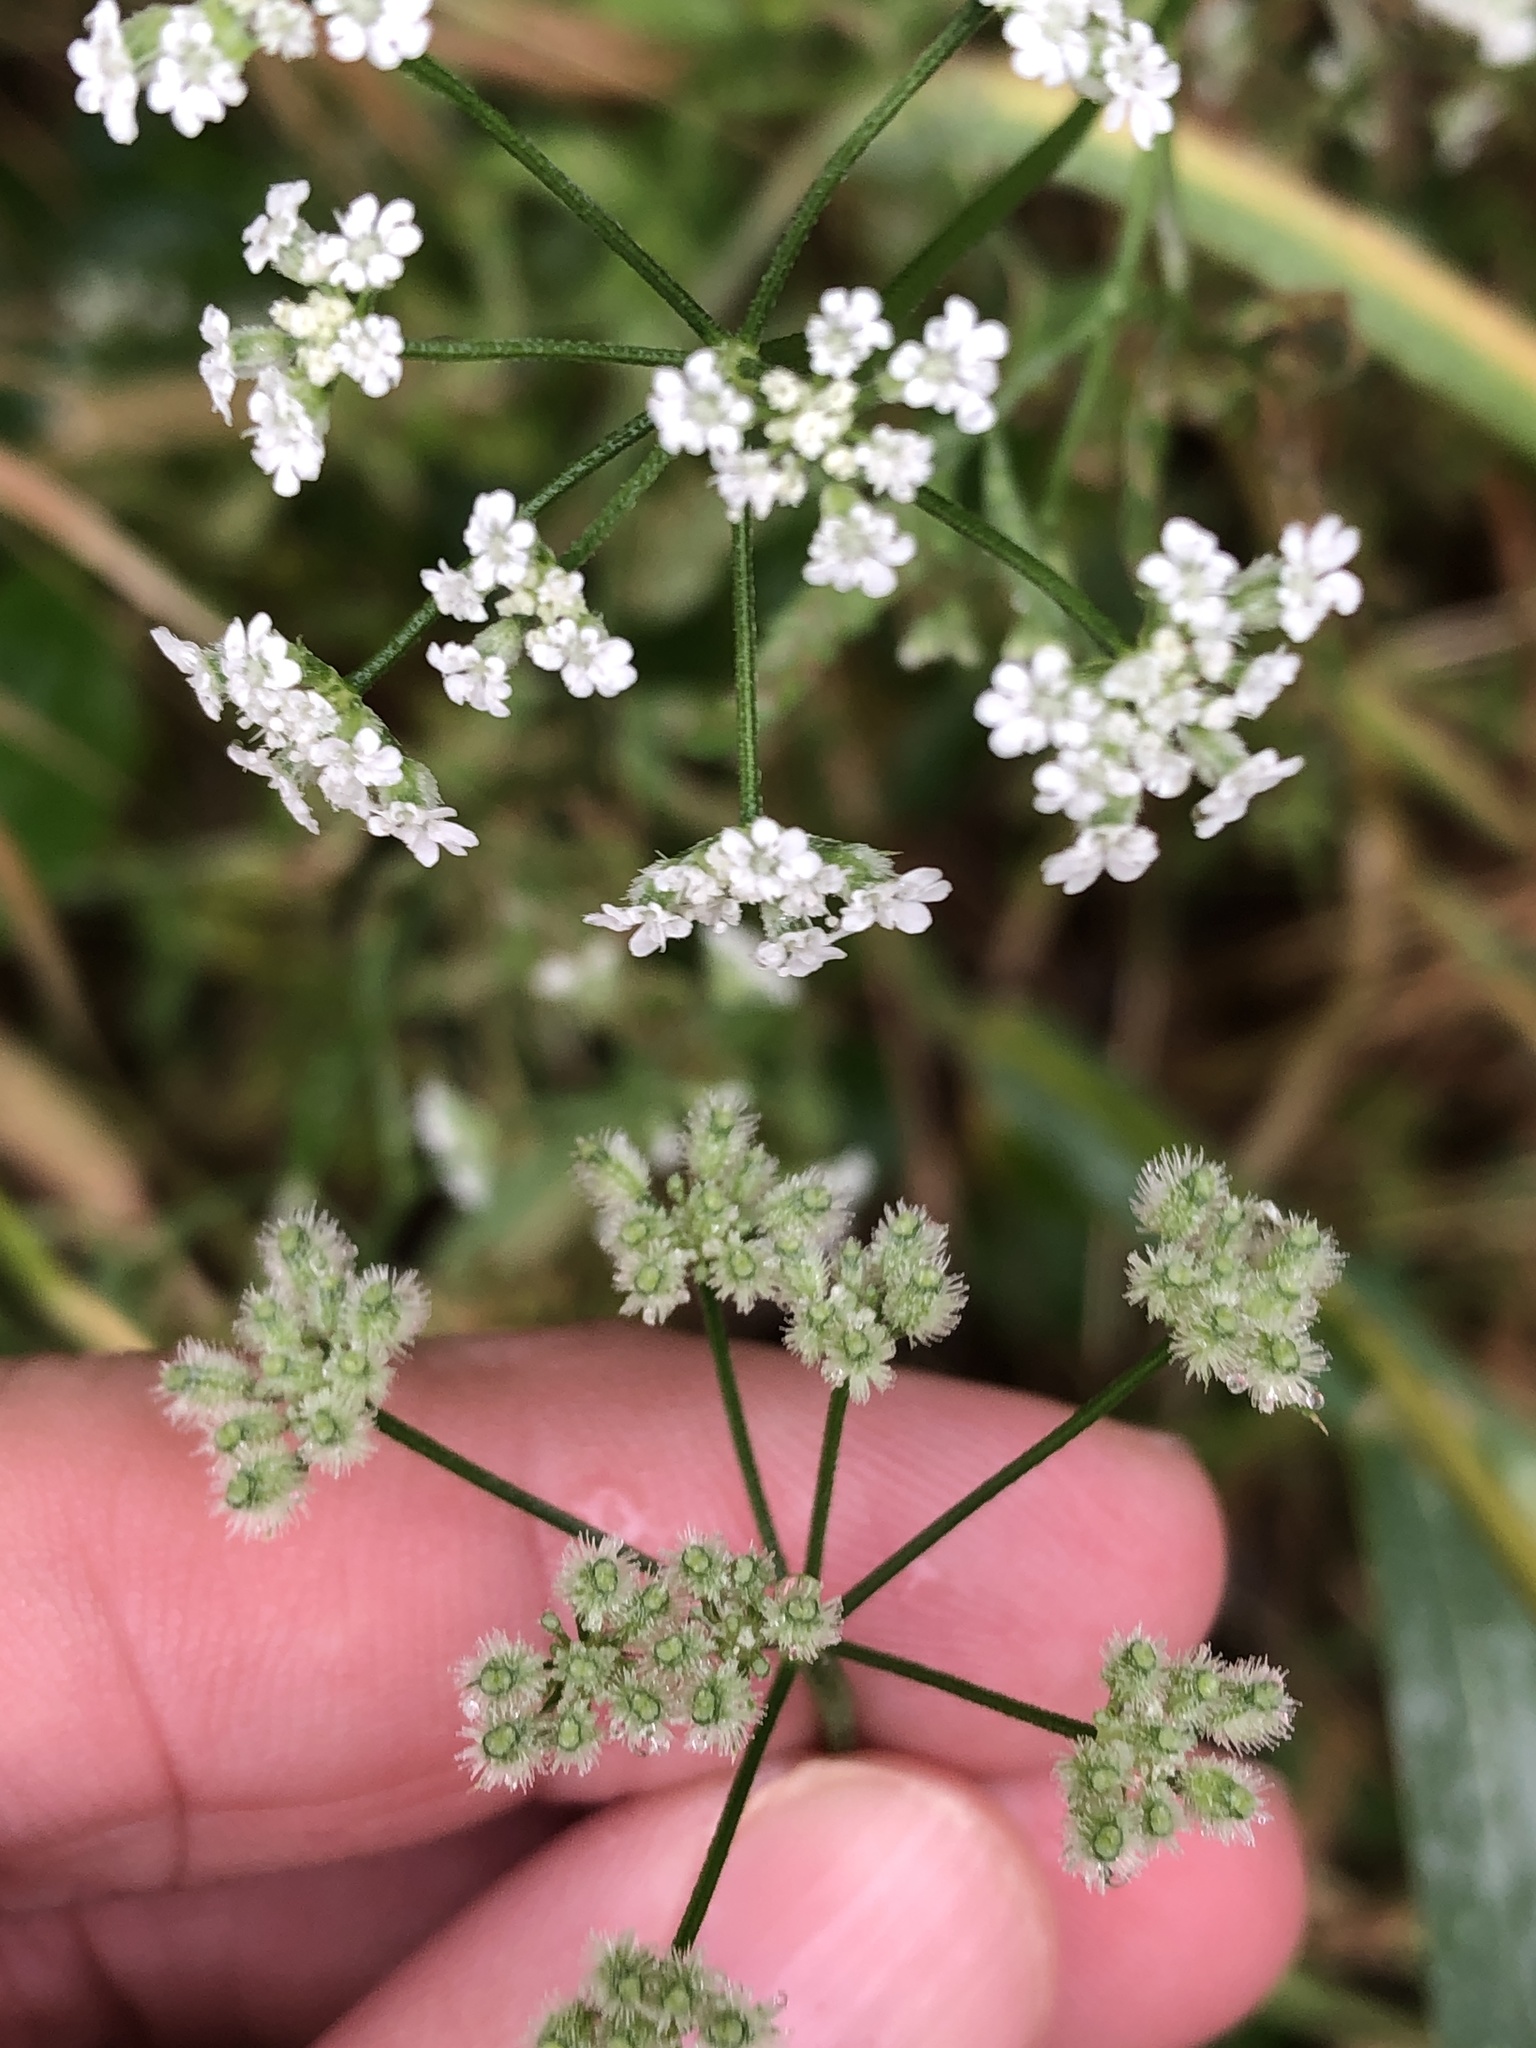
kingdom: Plantae
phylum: Tracheophyta
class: Magnoliopsida
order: Apiales
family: Apiaceae
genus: Torilis
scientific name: Torilis arvensis
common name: Spreading hedge-parsley
